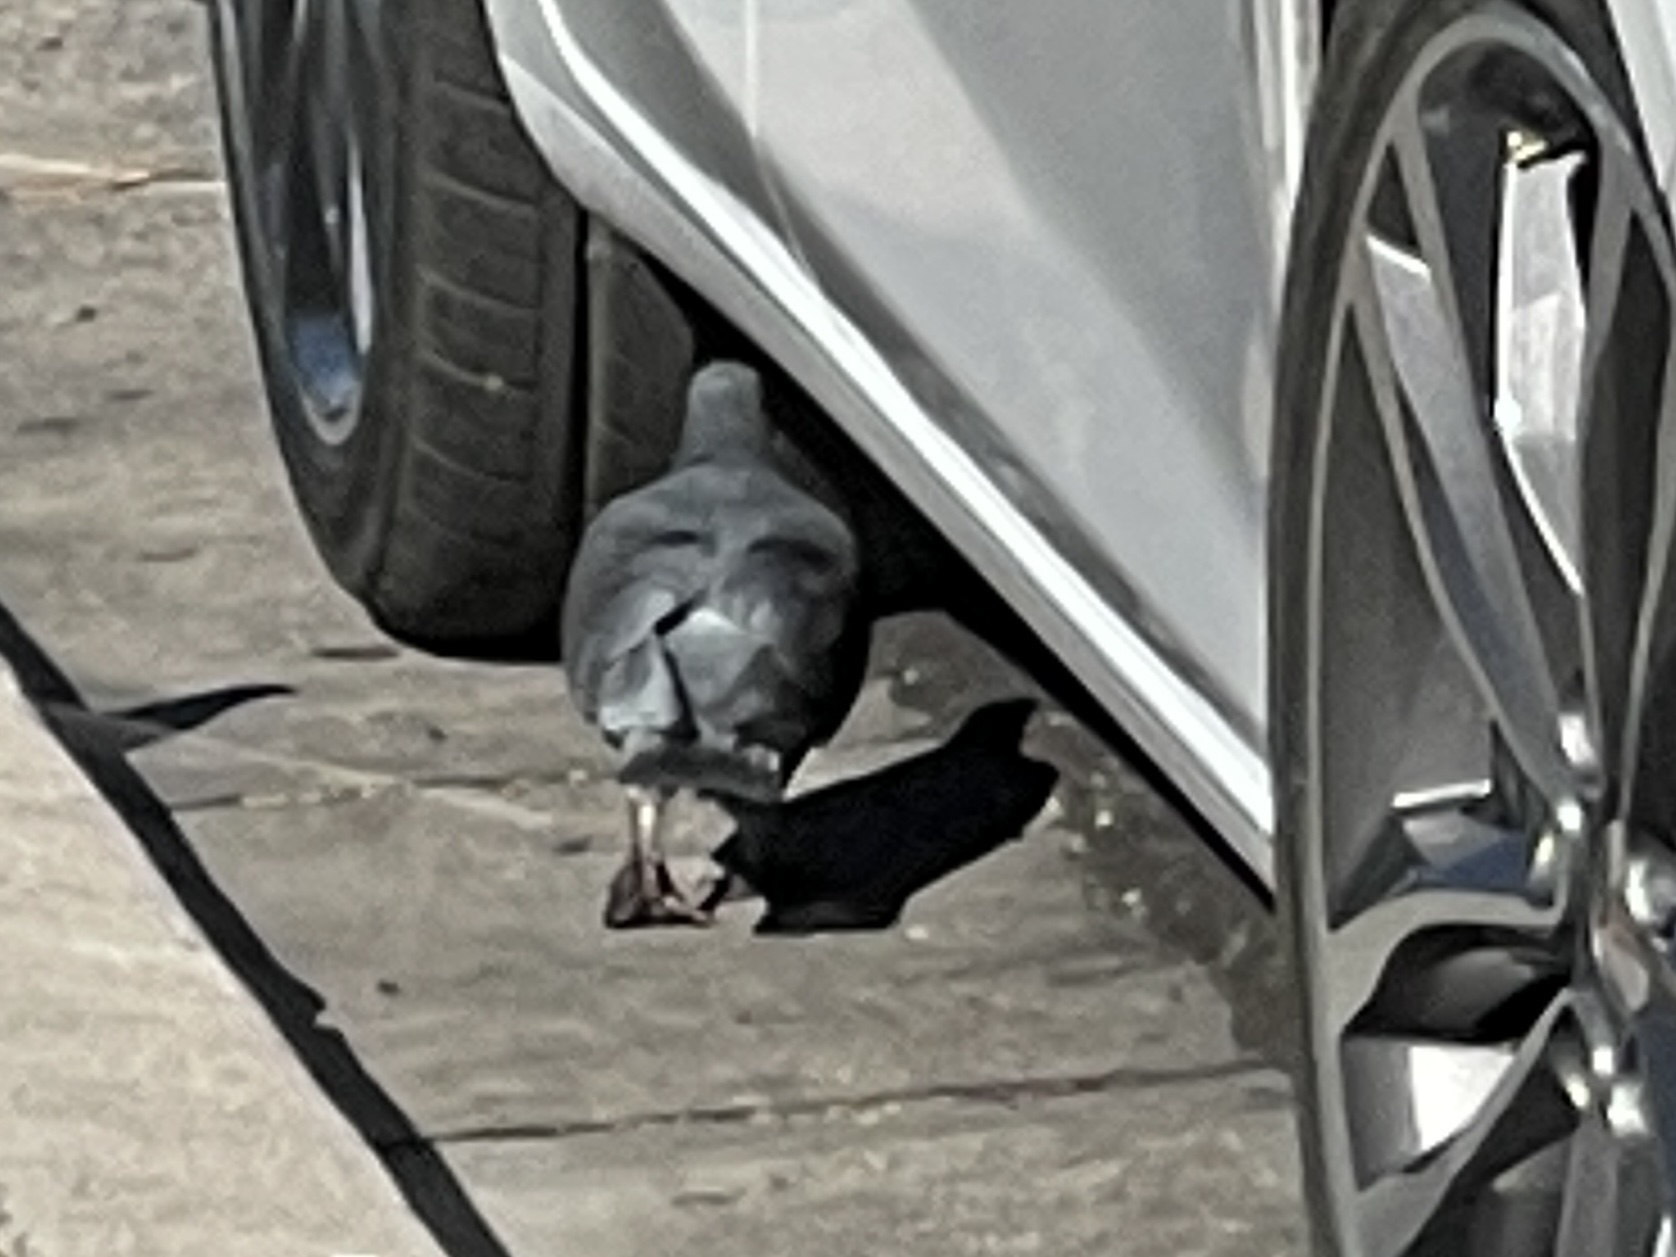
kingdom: Animalia
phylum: Chordata
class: Aves
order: Columbiformes
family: Columbidae
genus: Columba
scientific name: Columba livia
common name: Rock pigeon
